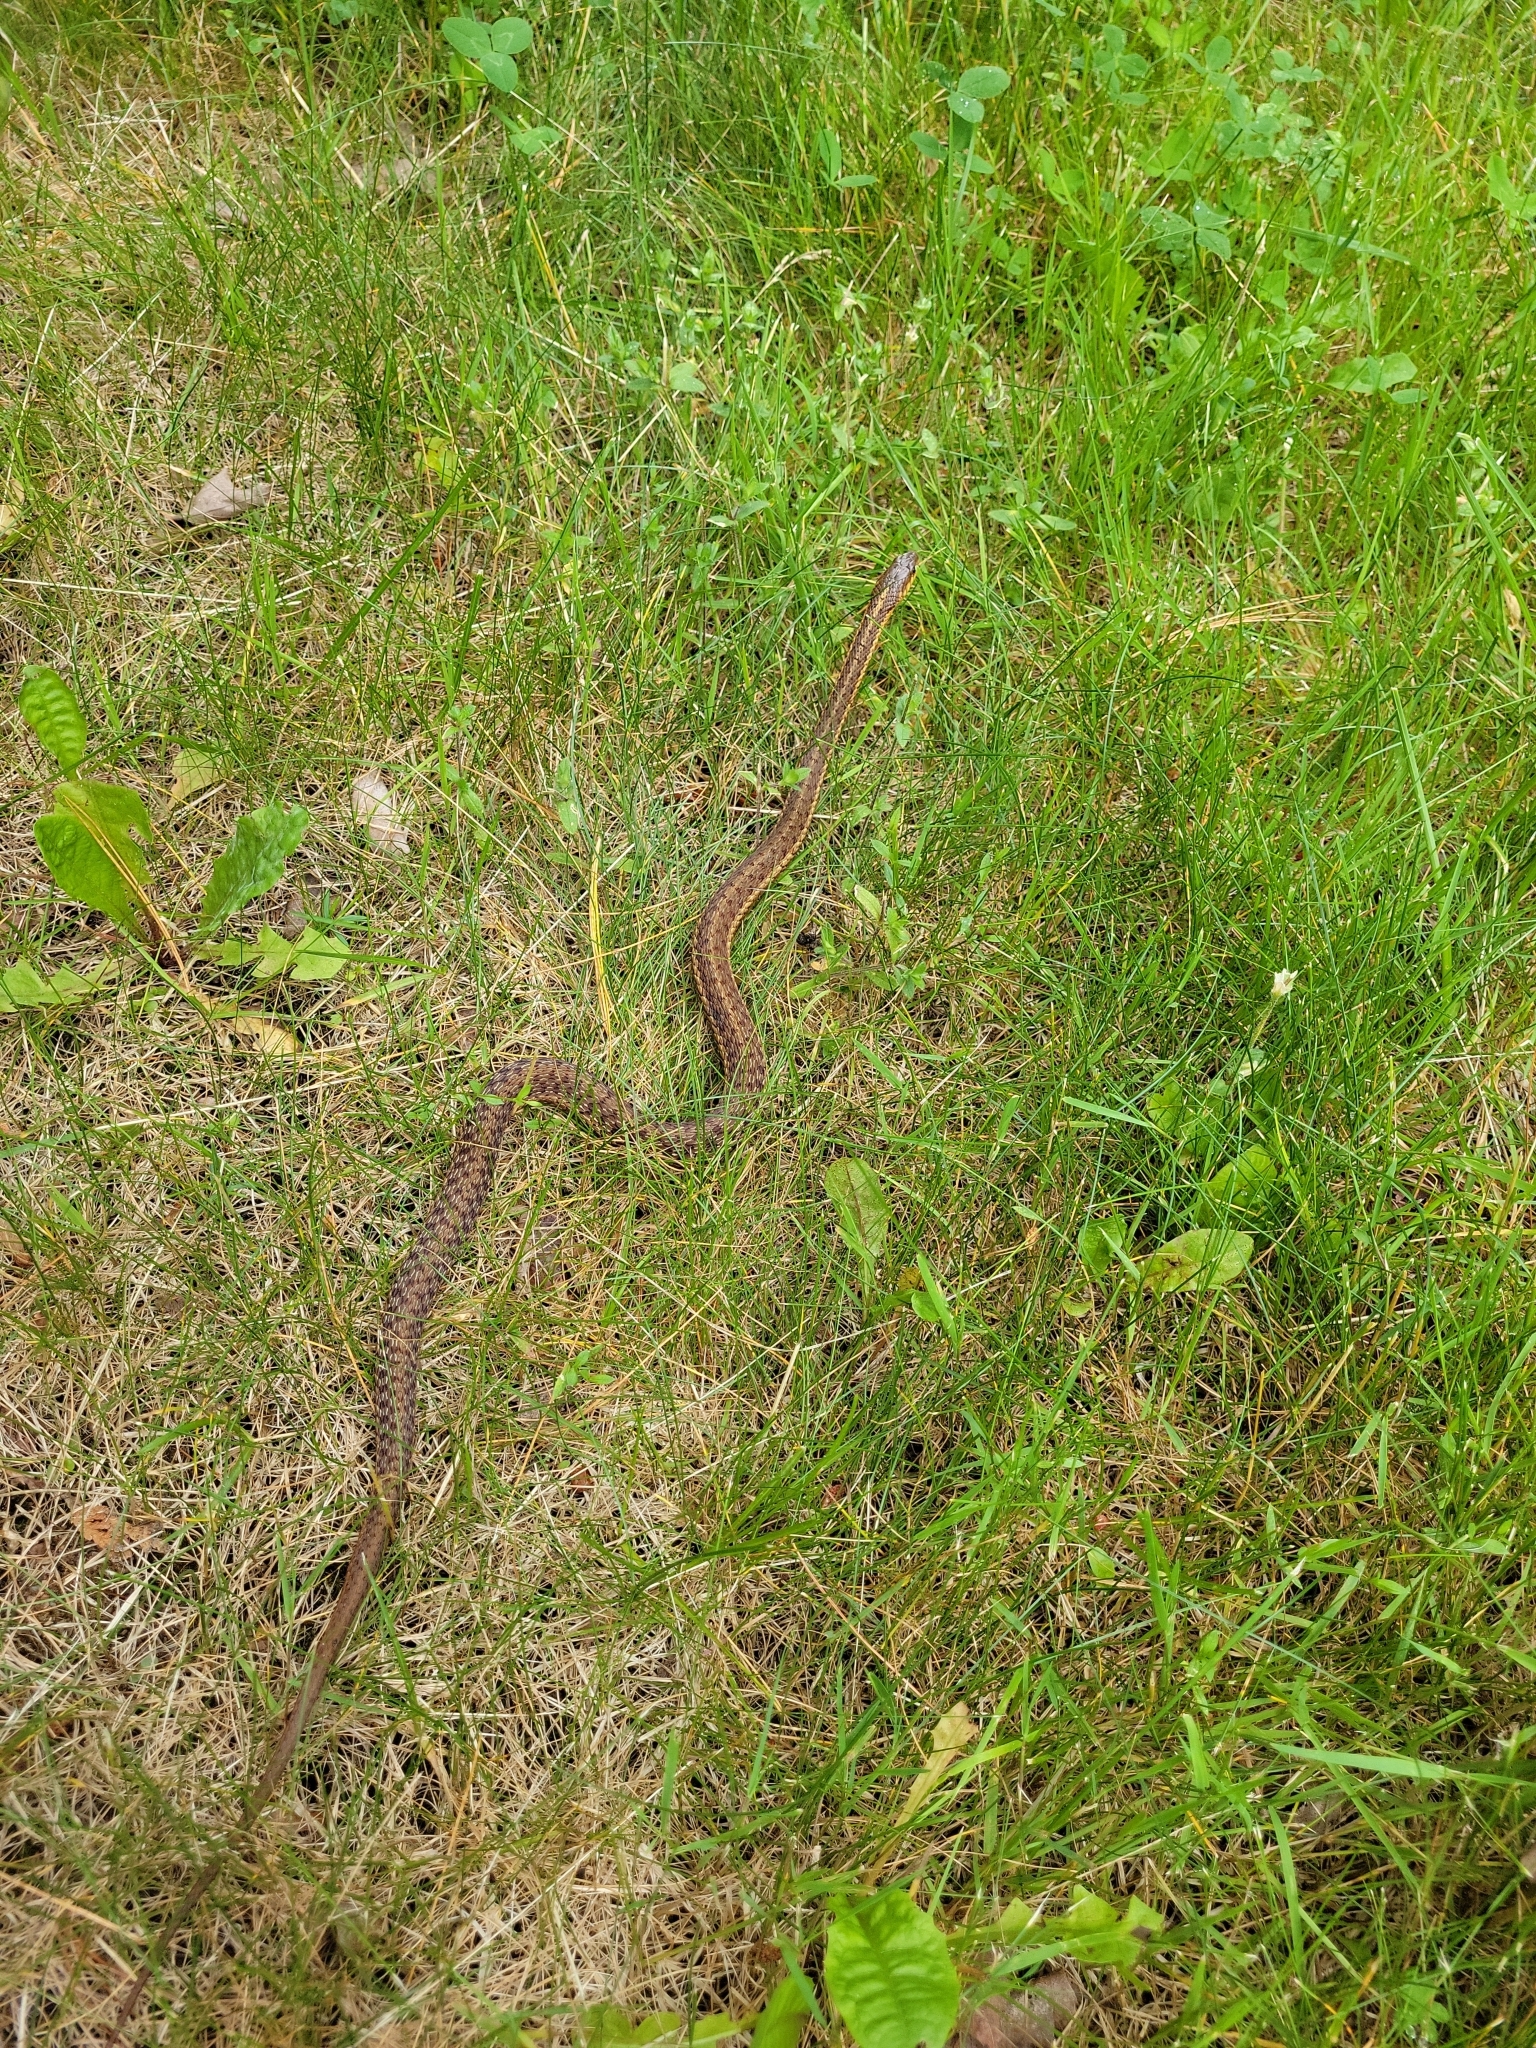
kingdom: Animalia
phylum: Chordata
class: Squamata
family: Colubridae
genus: Thamnophis
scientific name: Thamnophis sirtalis
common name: Common garter snake
